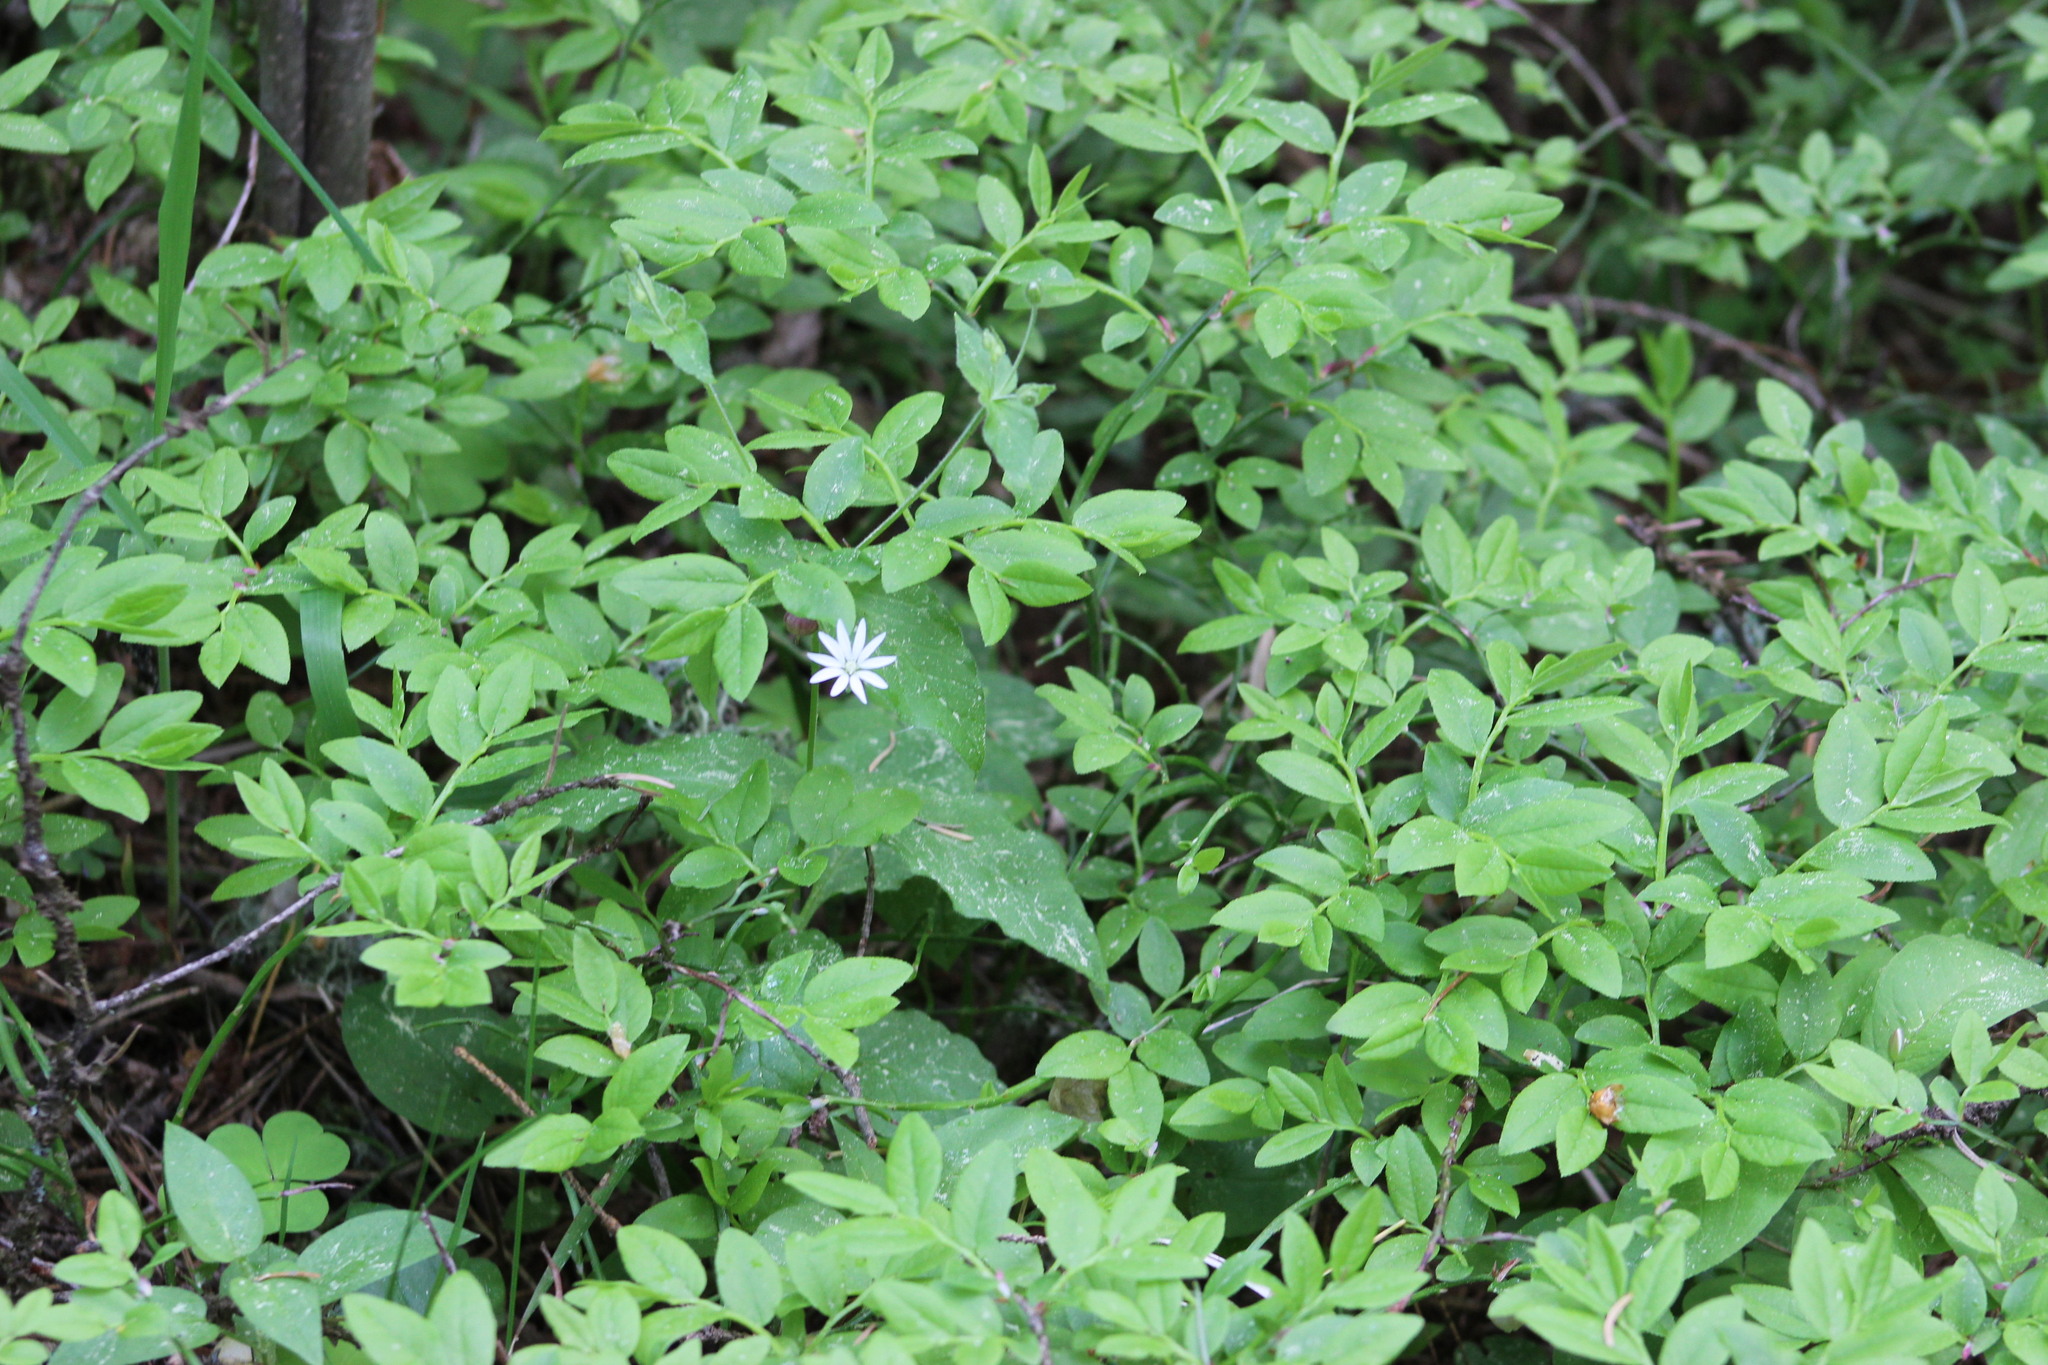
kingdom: Plantae
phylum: Tracheophyta
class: Magnoliopsida
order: Caryophyllales
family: Caryophyllaceae
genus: Stellaria
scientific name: Stellaria bungeana
